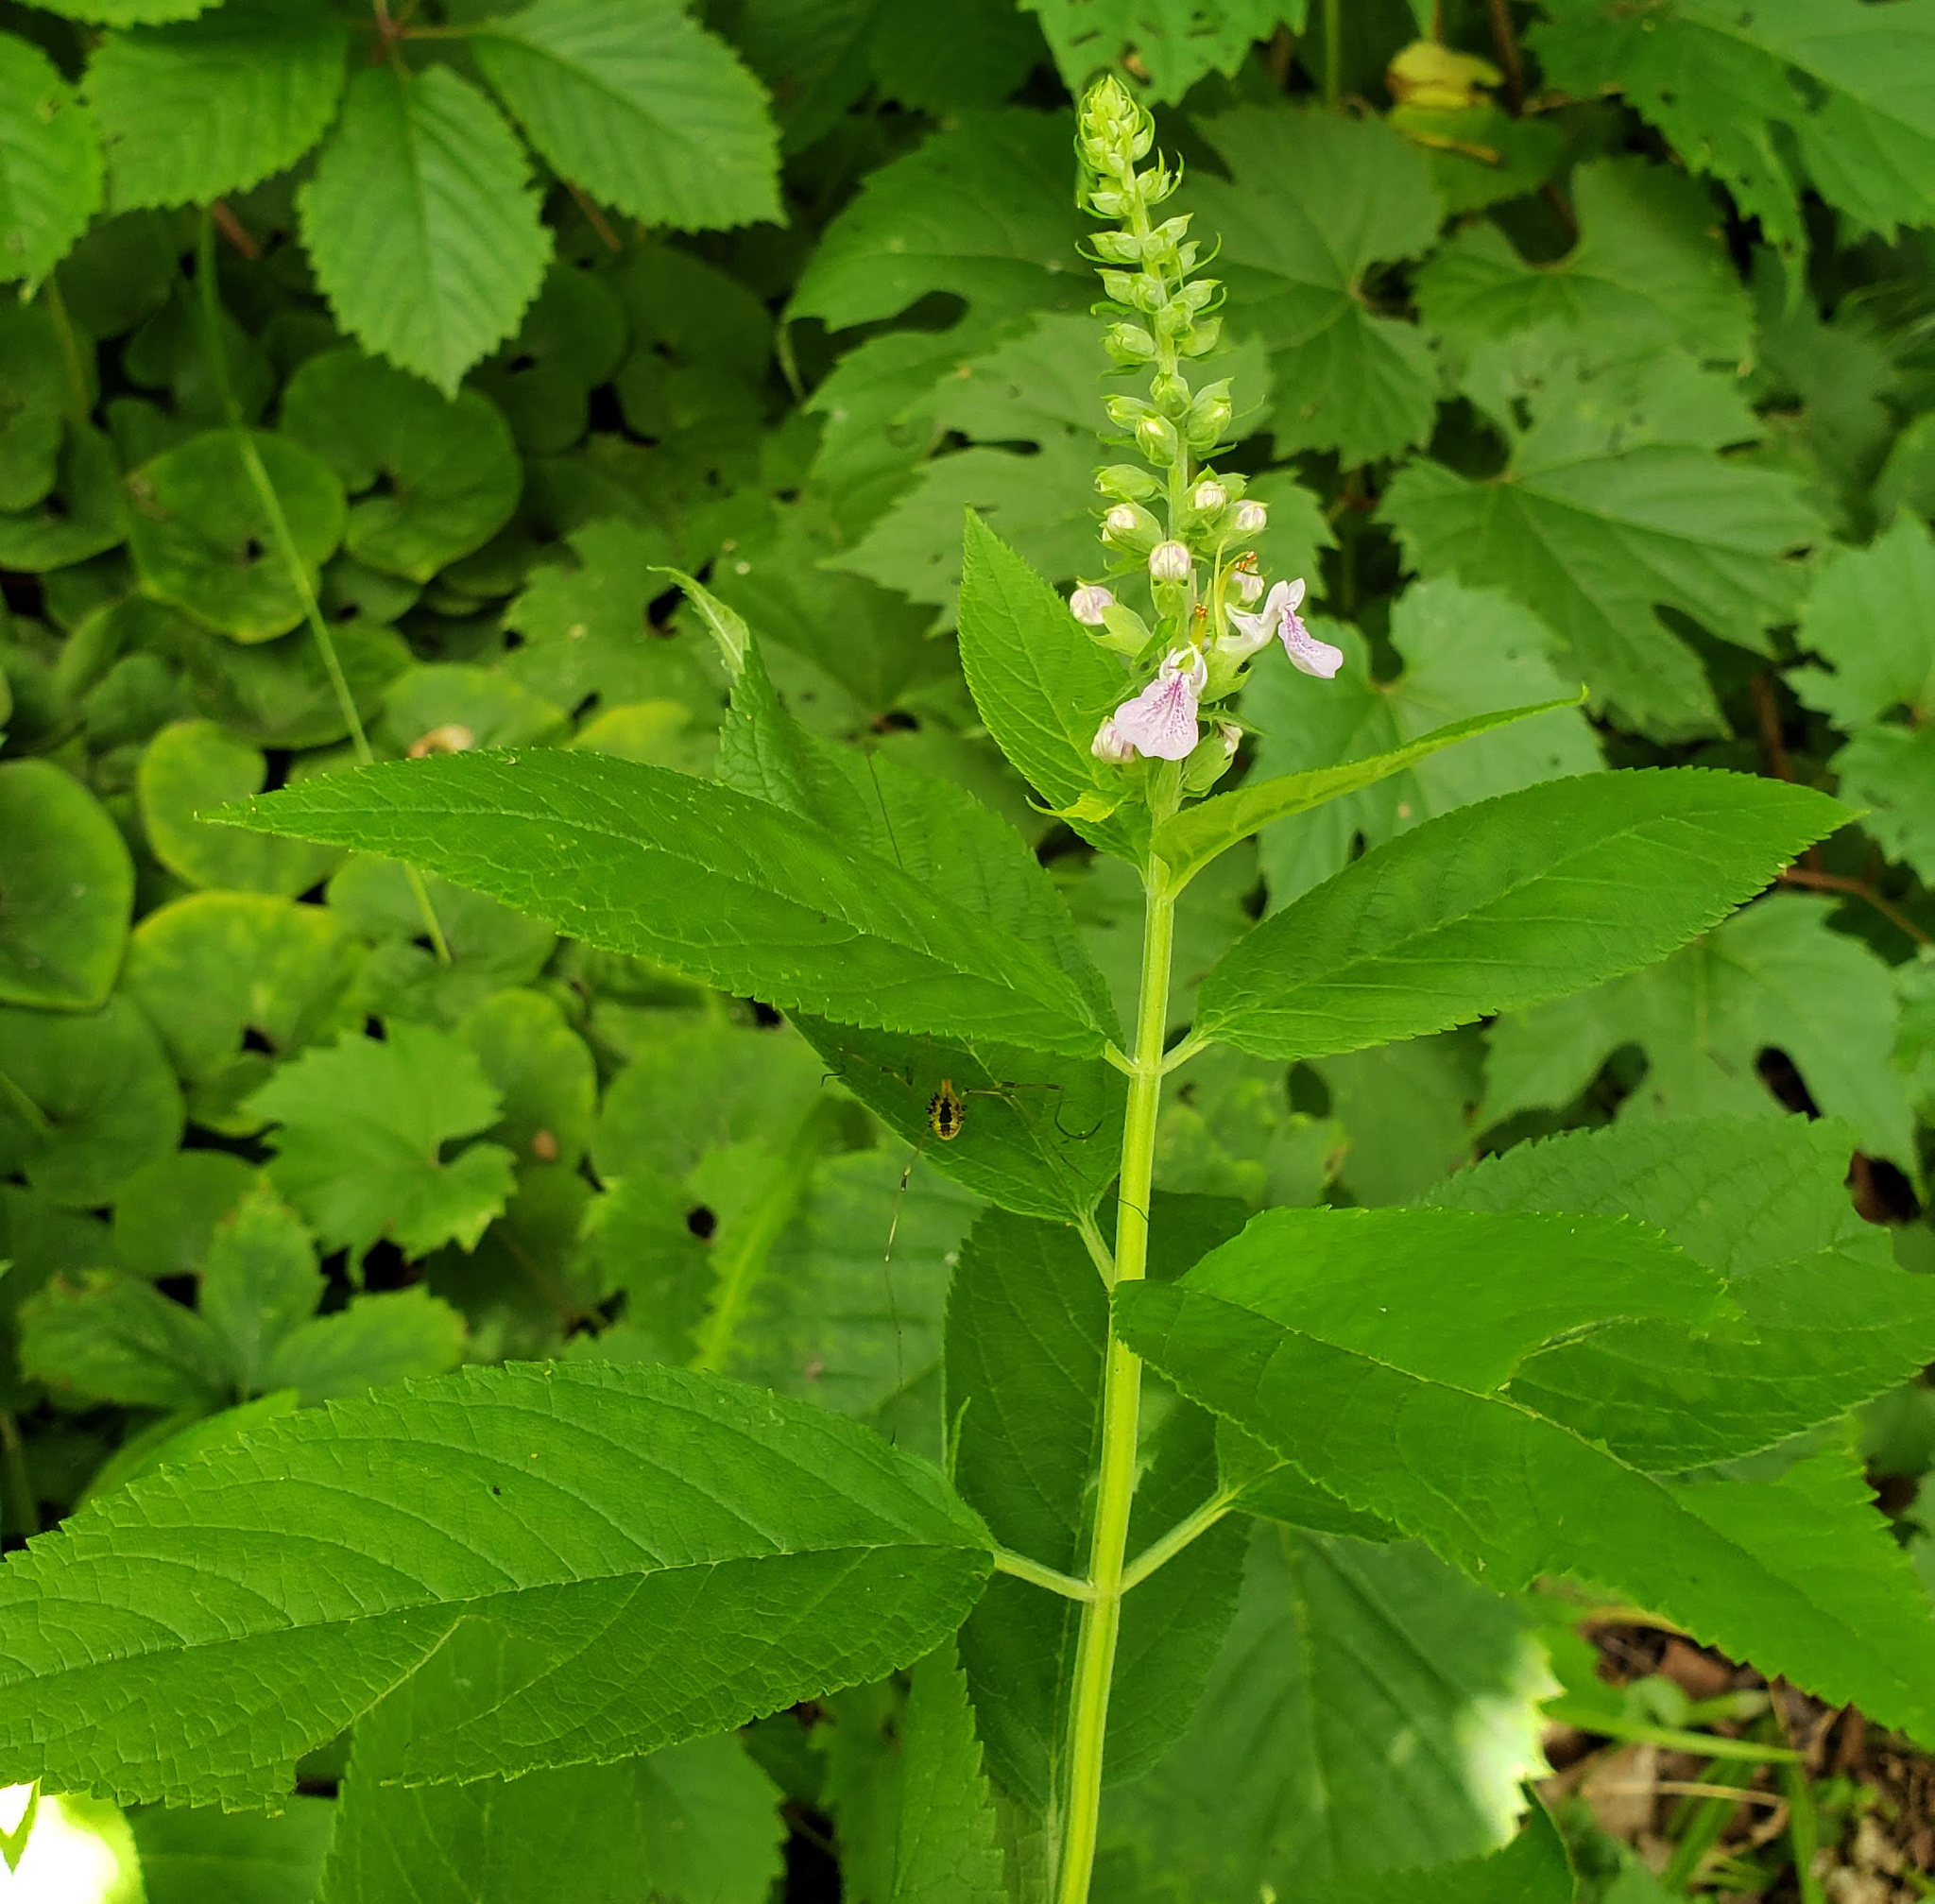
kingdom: Plantae
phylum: Tracheophyta
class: Magnoliopsida
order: Lamiales
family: Lamiaceae
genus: Teucrium
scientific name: Teucrium canadense
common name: American germander
